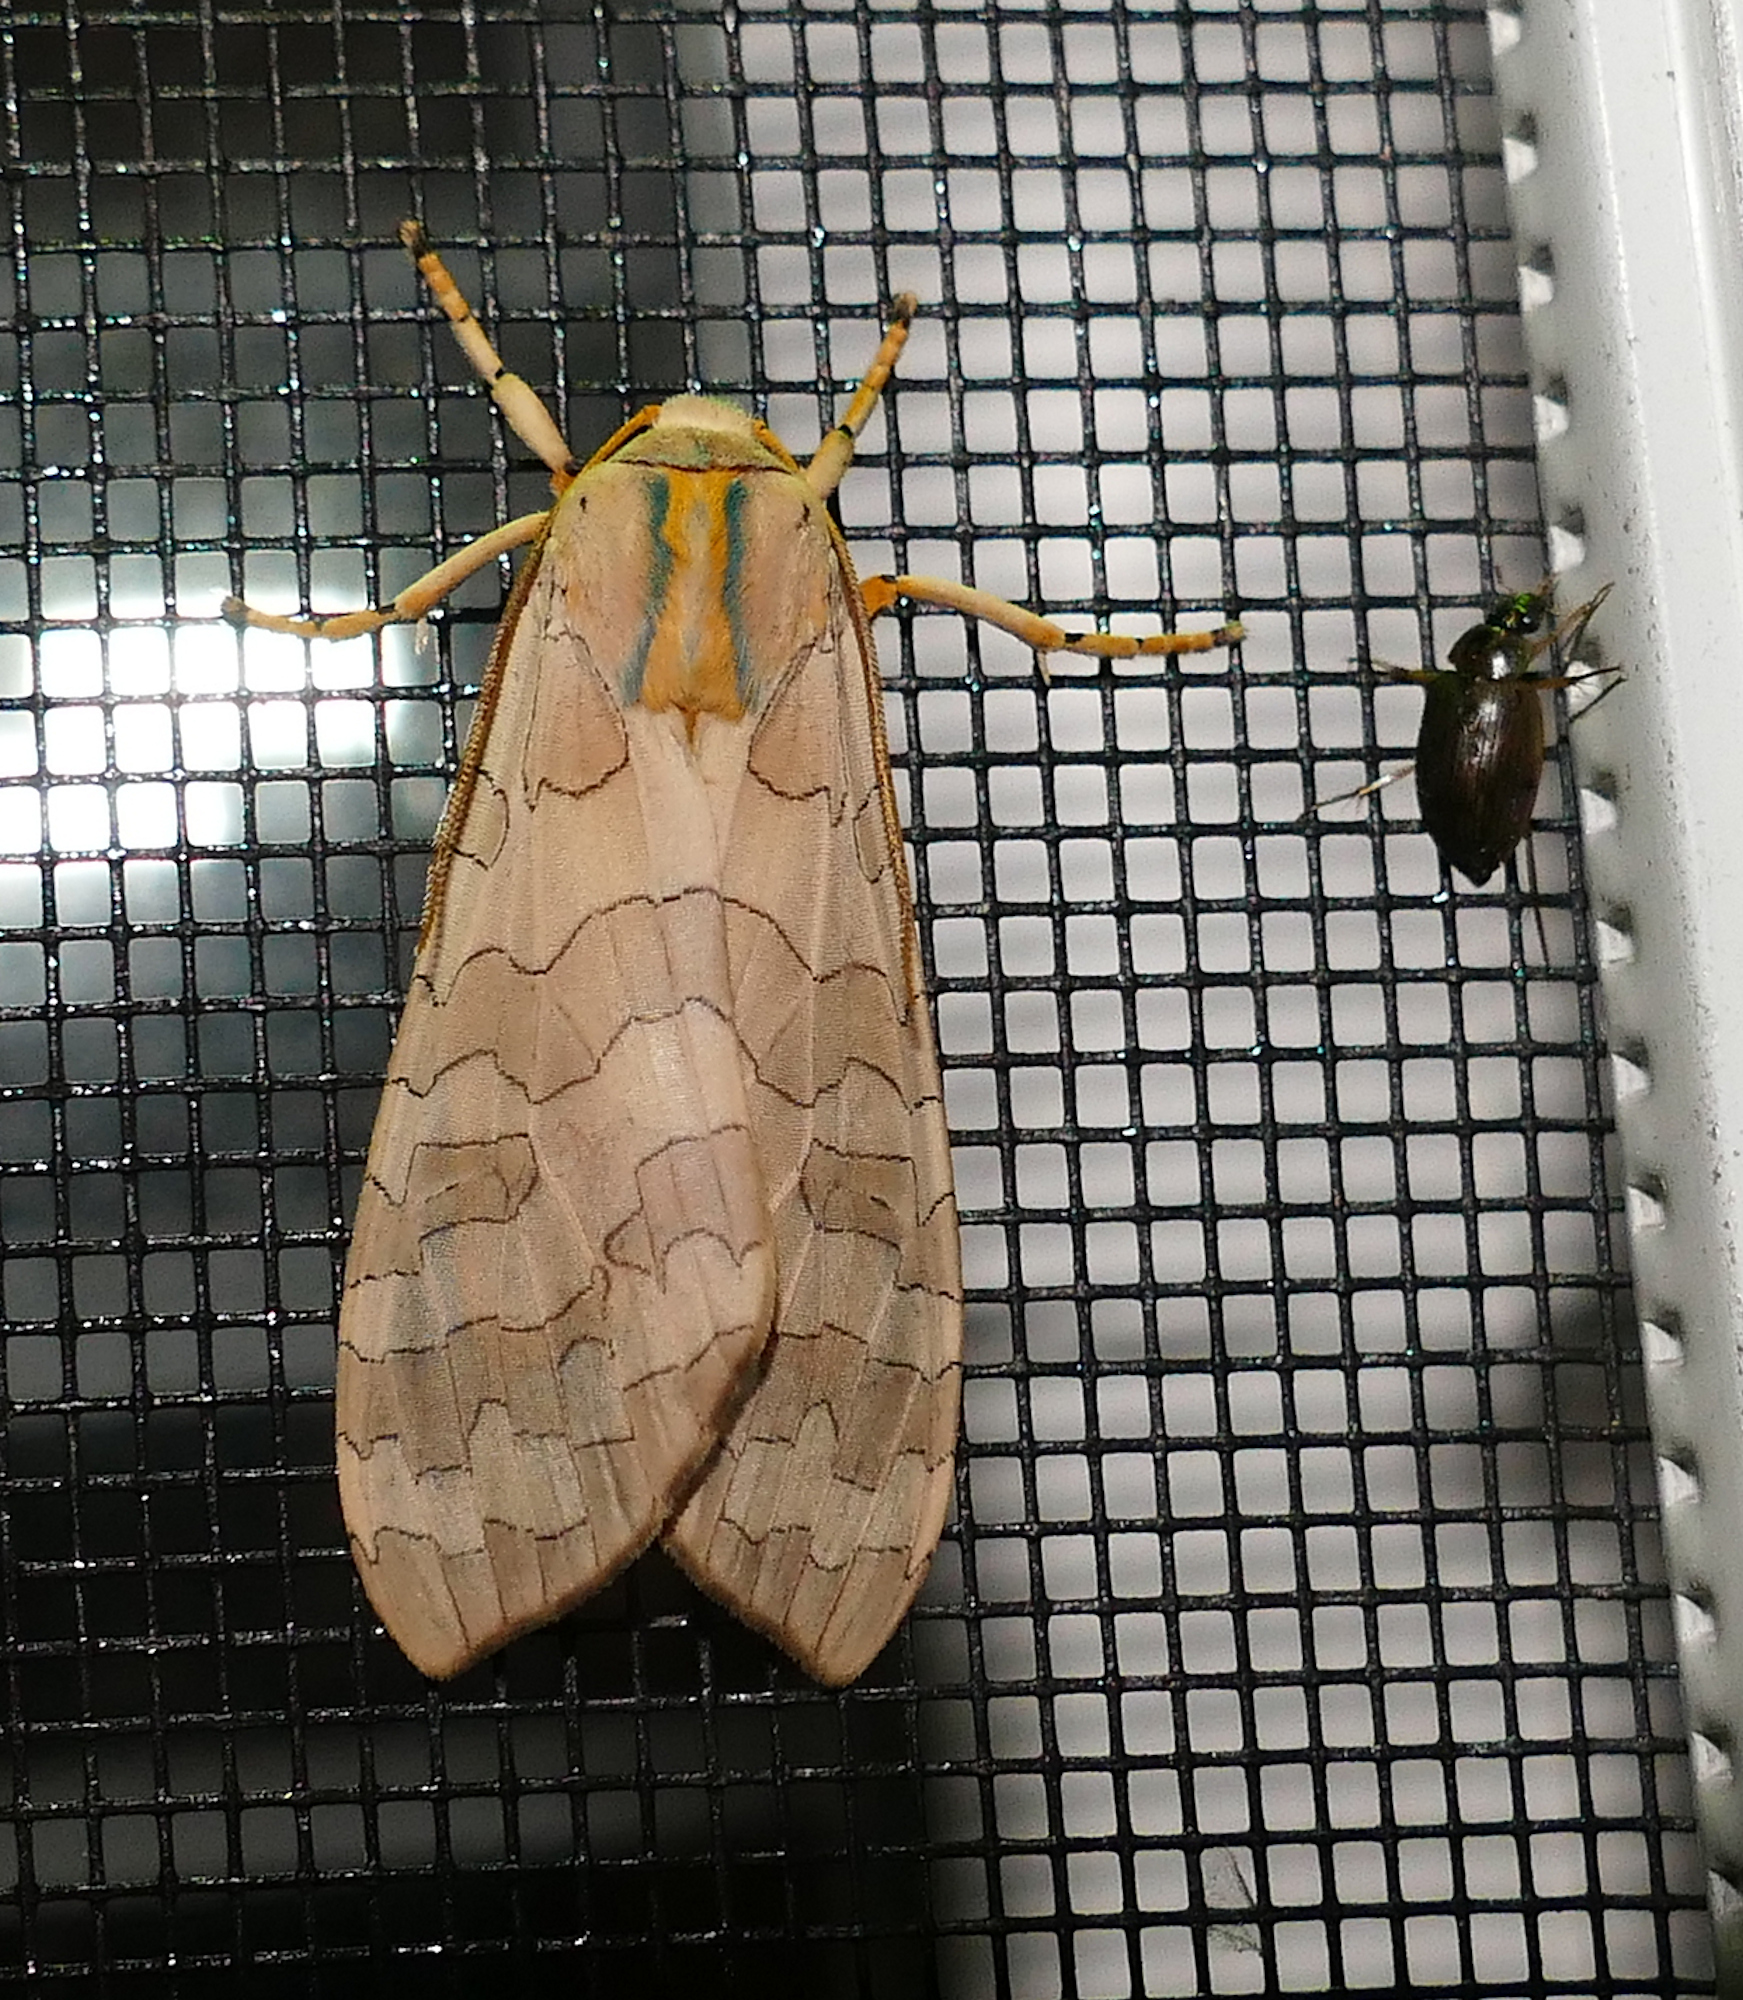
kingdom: Animalia
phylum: Arthropoda
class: Insecta
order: Lepidoptera
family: Erebidae
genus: Halysidota
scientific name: Halysidota
